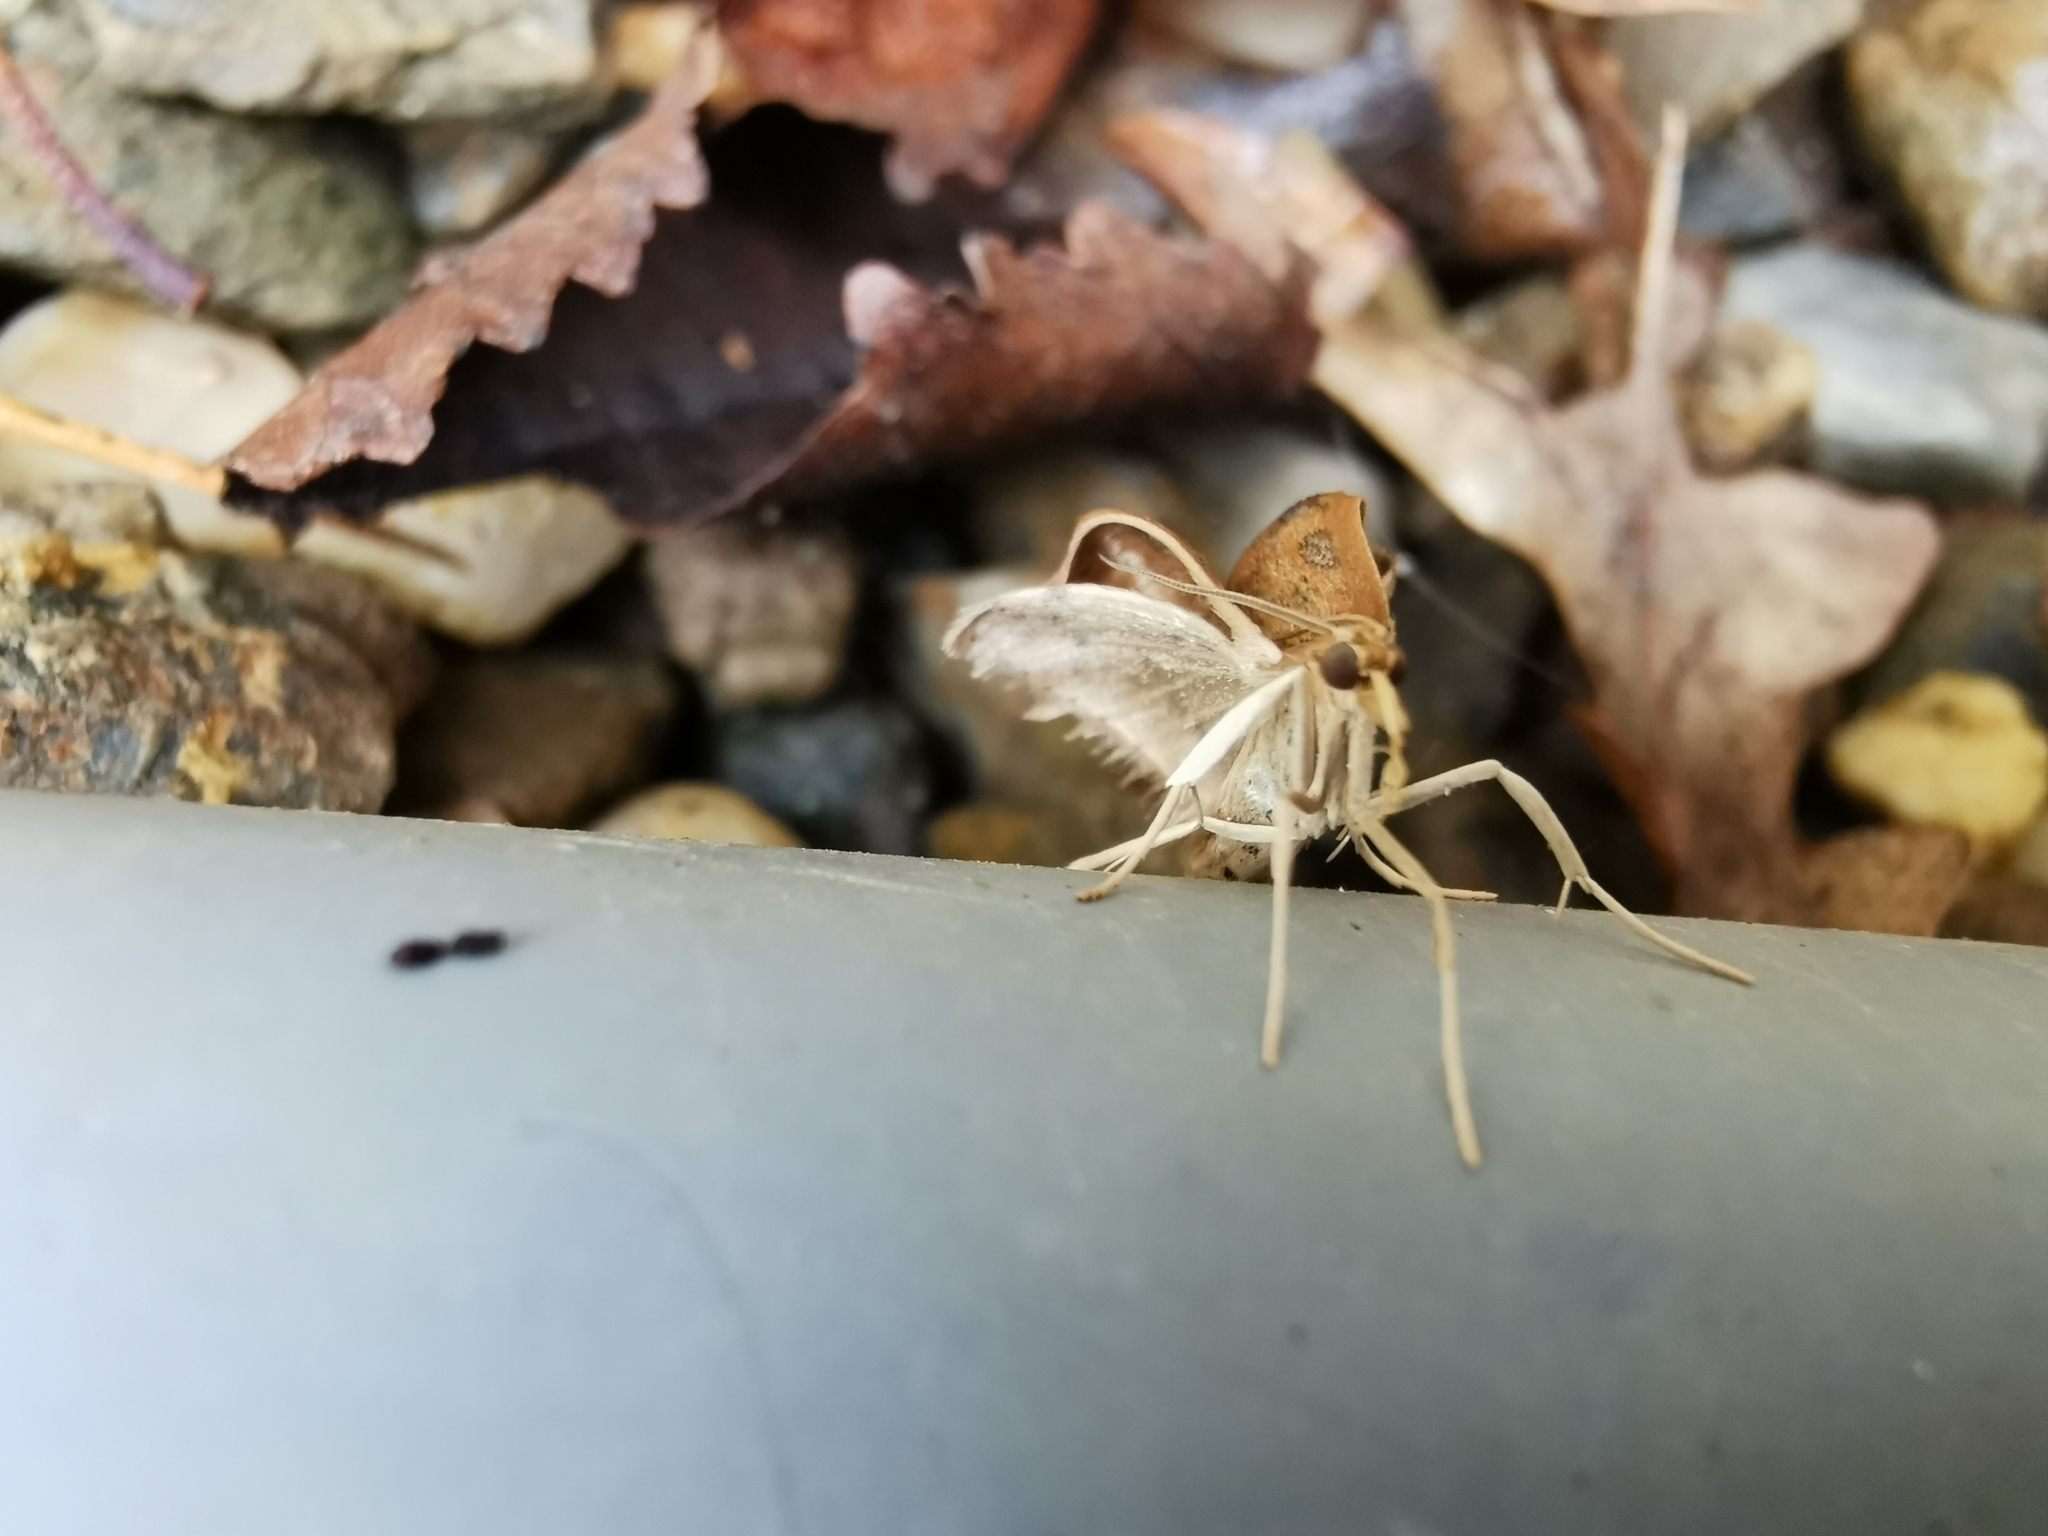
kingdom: Animalia
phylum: Arthropoda
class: Insecta
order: Lepidoptera
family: Crambidae
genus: Udea
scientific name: Udea ferrugalis
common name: Rusty dot
